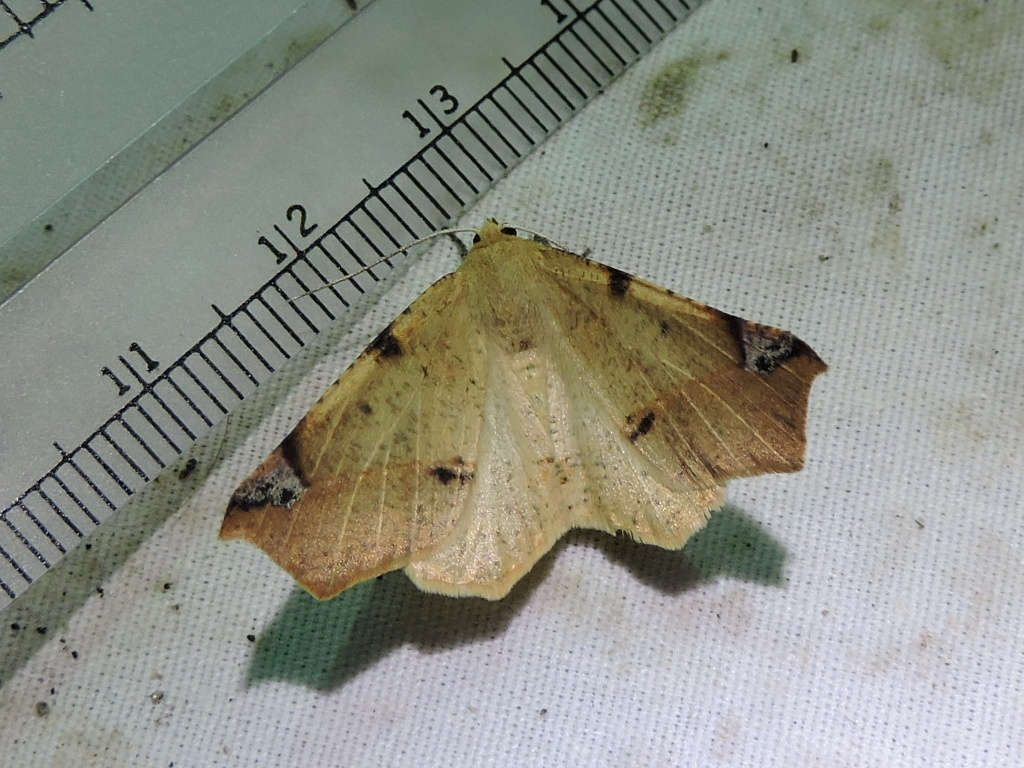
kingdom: Animalia
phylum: Arthropoda
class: Insecta
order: Lepidoptera
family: Geometridae
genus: Antepione
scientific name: Antepione imitata
